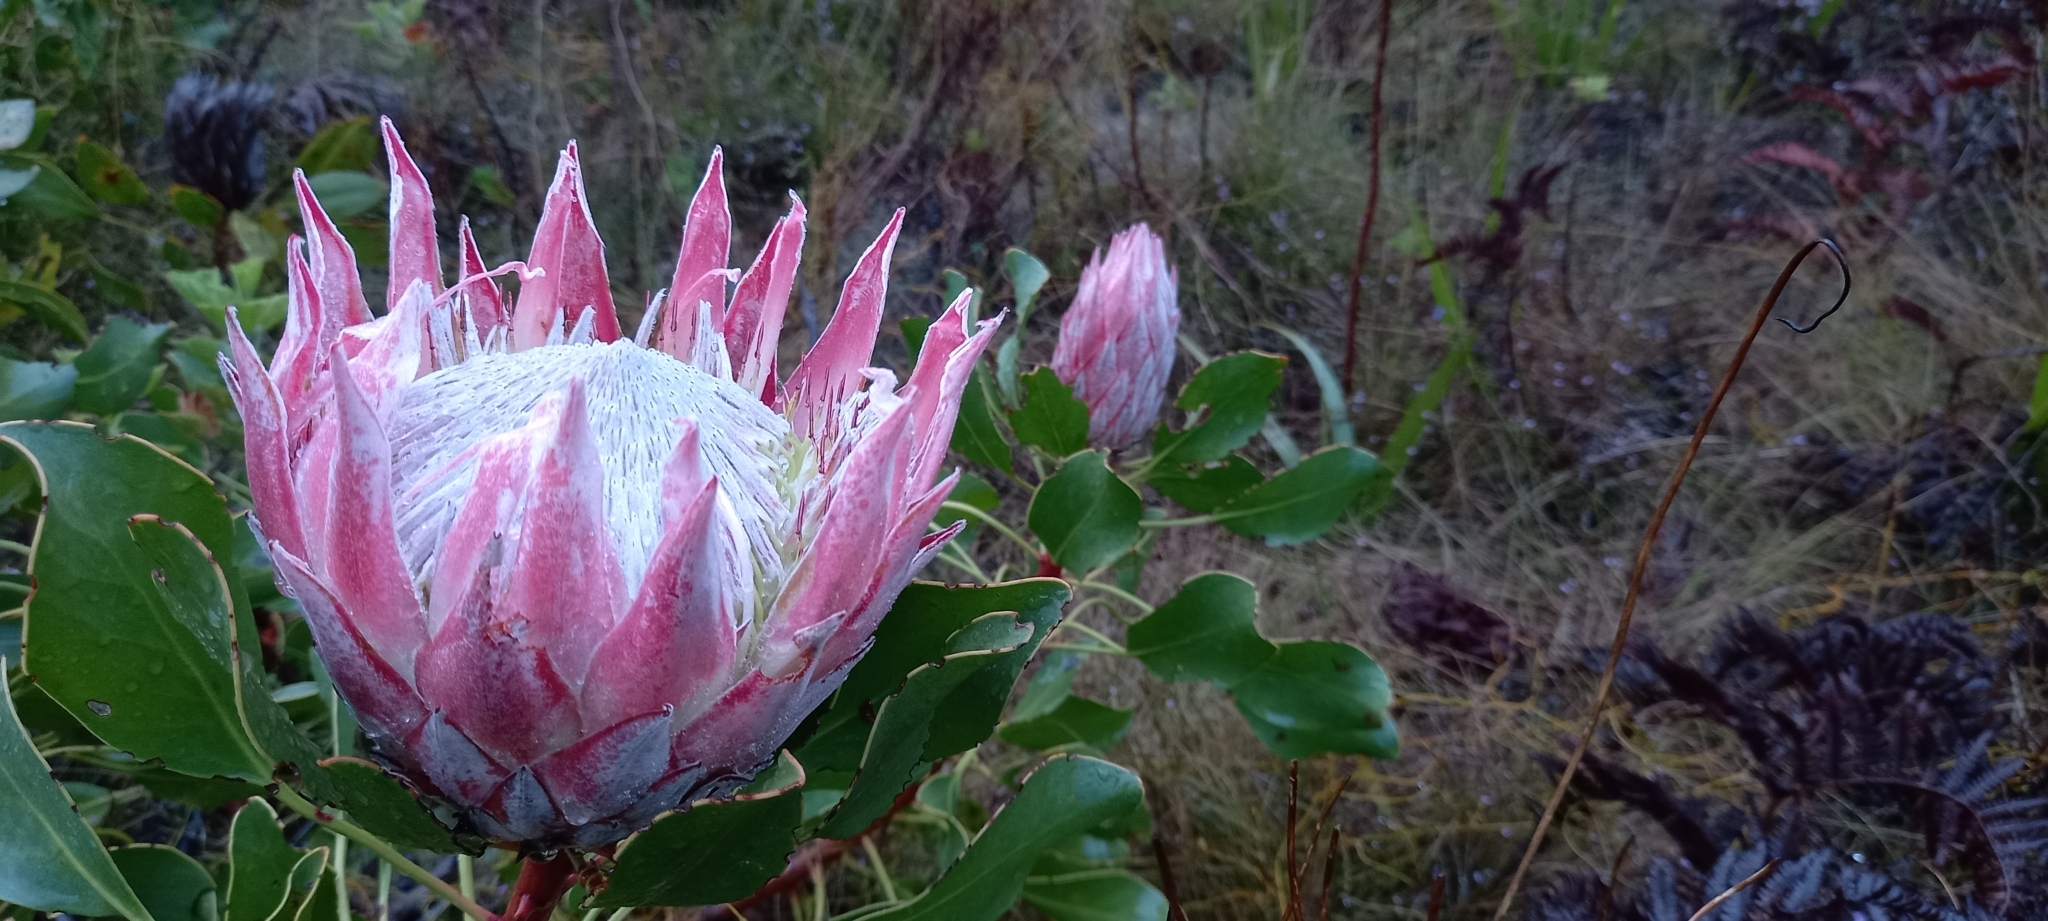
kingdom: Plantae
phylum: Tracheophyta
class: Magnoliopsida
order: Proteales
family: Proteaceae
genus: Protea
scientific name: Protea cynaroides
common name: King protea
